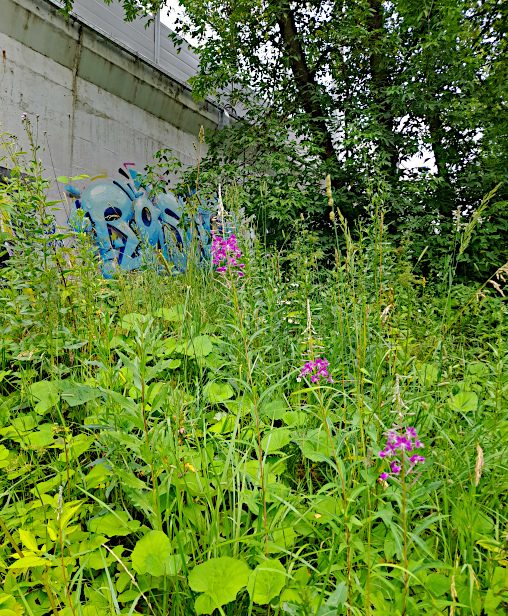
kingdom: Plantae
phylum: Tracheophyta
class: Magnoliopsida
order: Myrtales
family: Onagraceae
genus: Chamaenerion
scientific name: Chamaenerion angustifolium
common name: Fireweed
